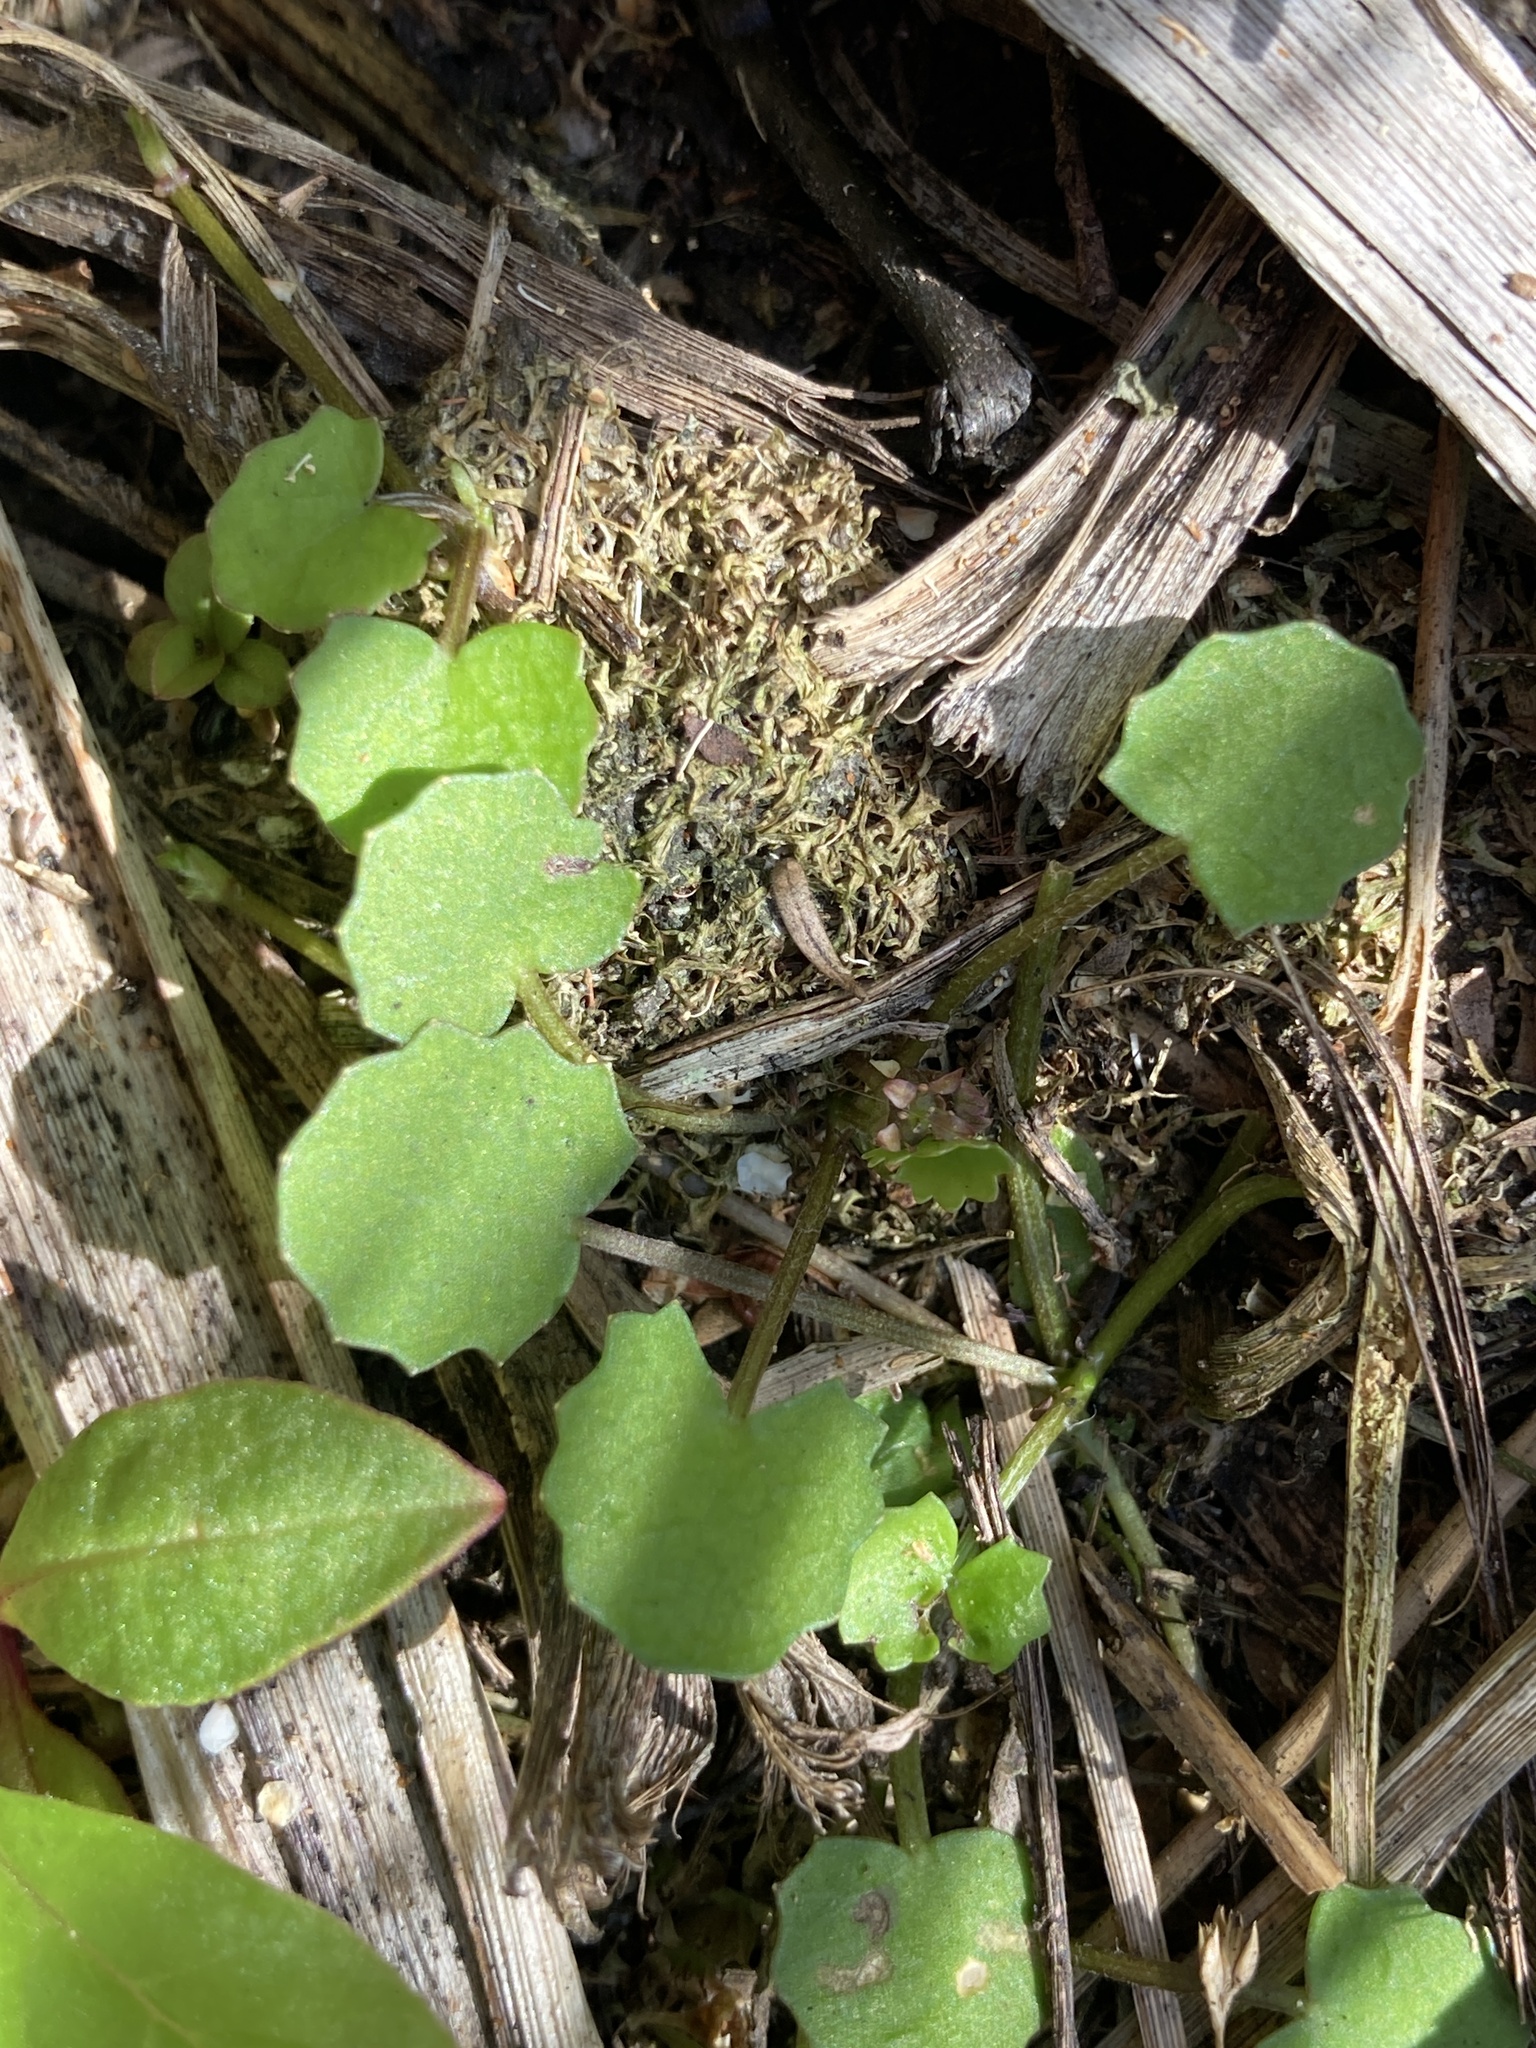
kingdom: Plantae
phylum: Tracheophyta
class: Magnoliopsida
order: Apiales
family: Apiaceae
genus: Centella
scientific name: Centella uniflora
